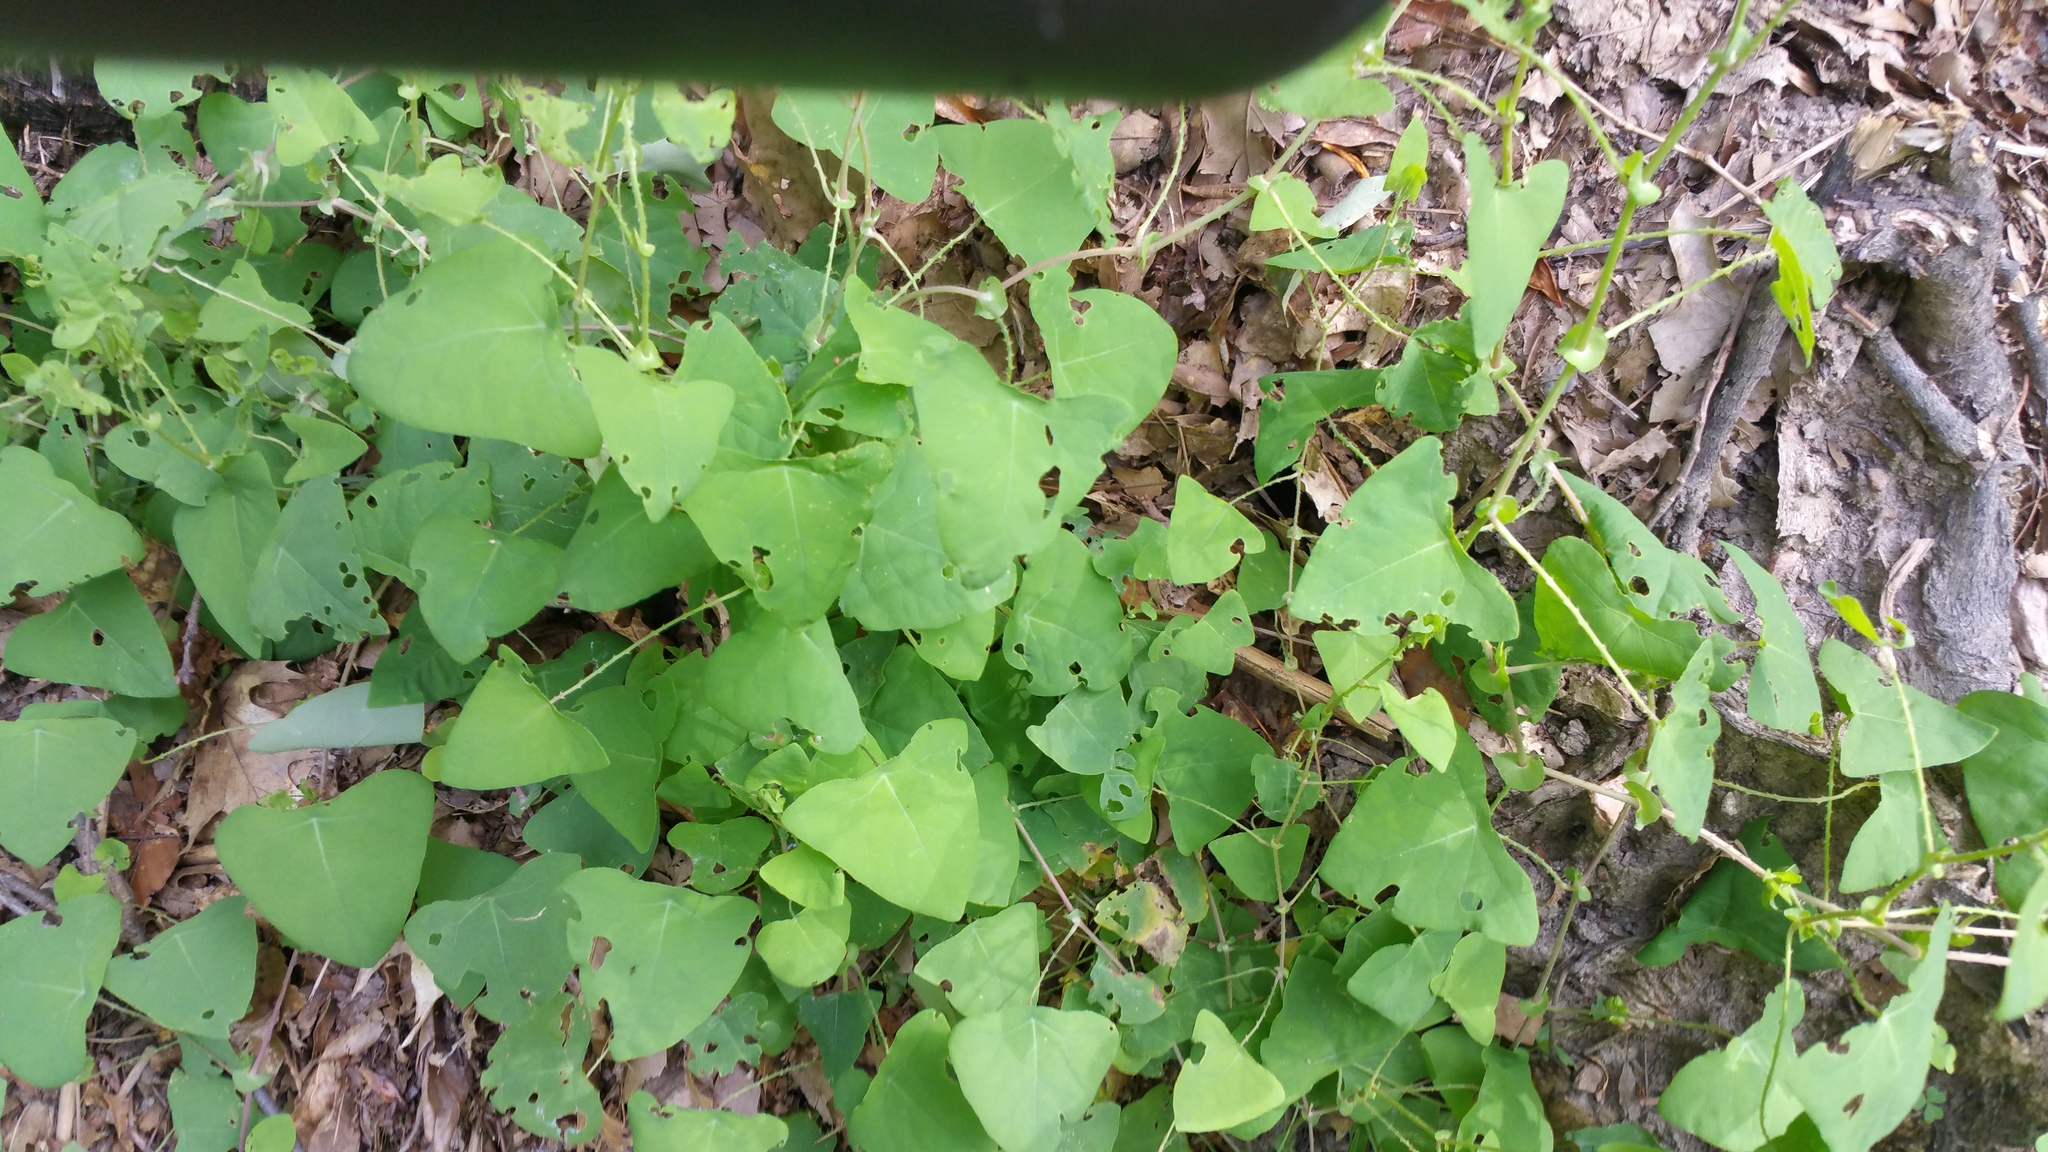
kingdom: Plantae
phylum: Tracheophyta
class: Magnoliopsida
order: Caryophyllales
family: Polygonaceae
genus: Persicaria
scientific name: Persicaria perfoliata
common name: Asiatic tearthumb
